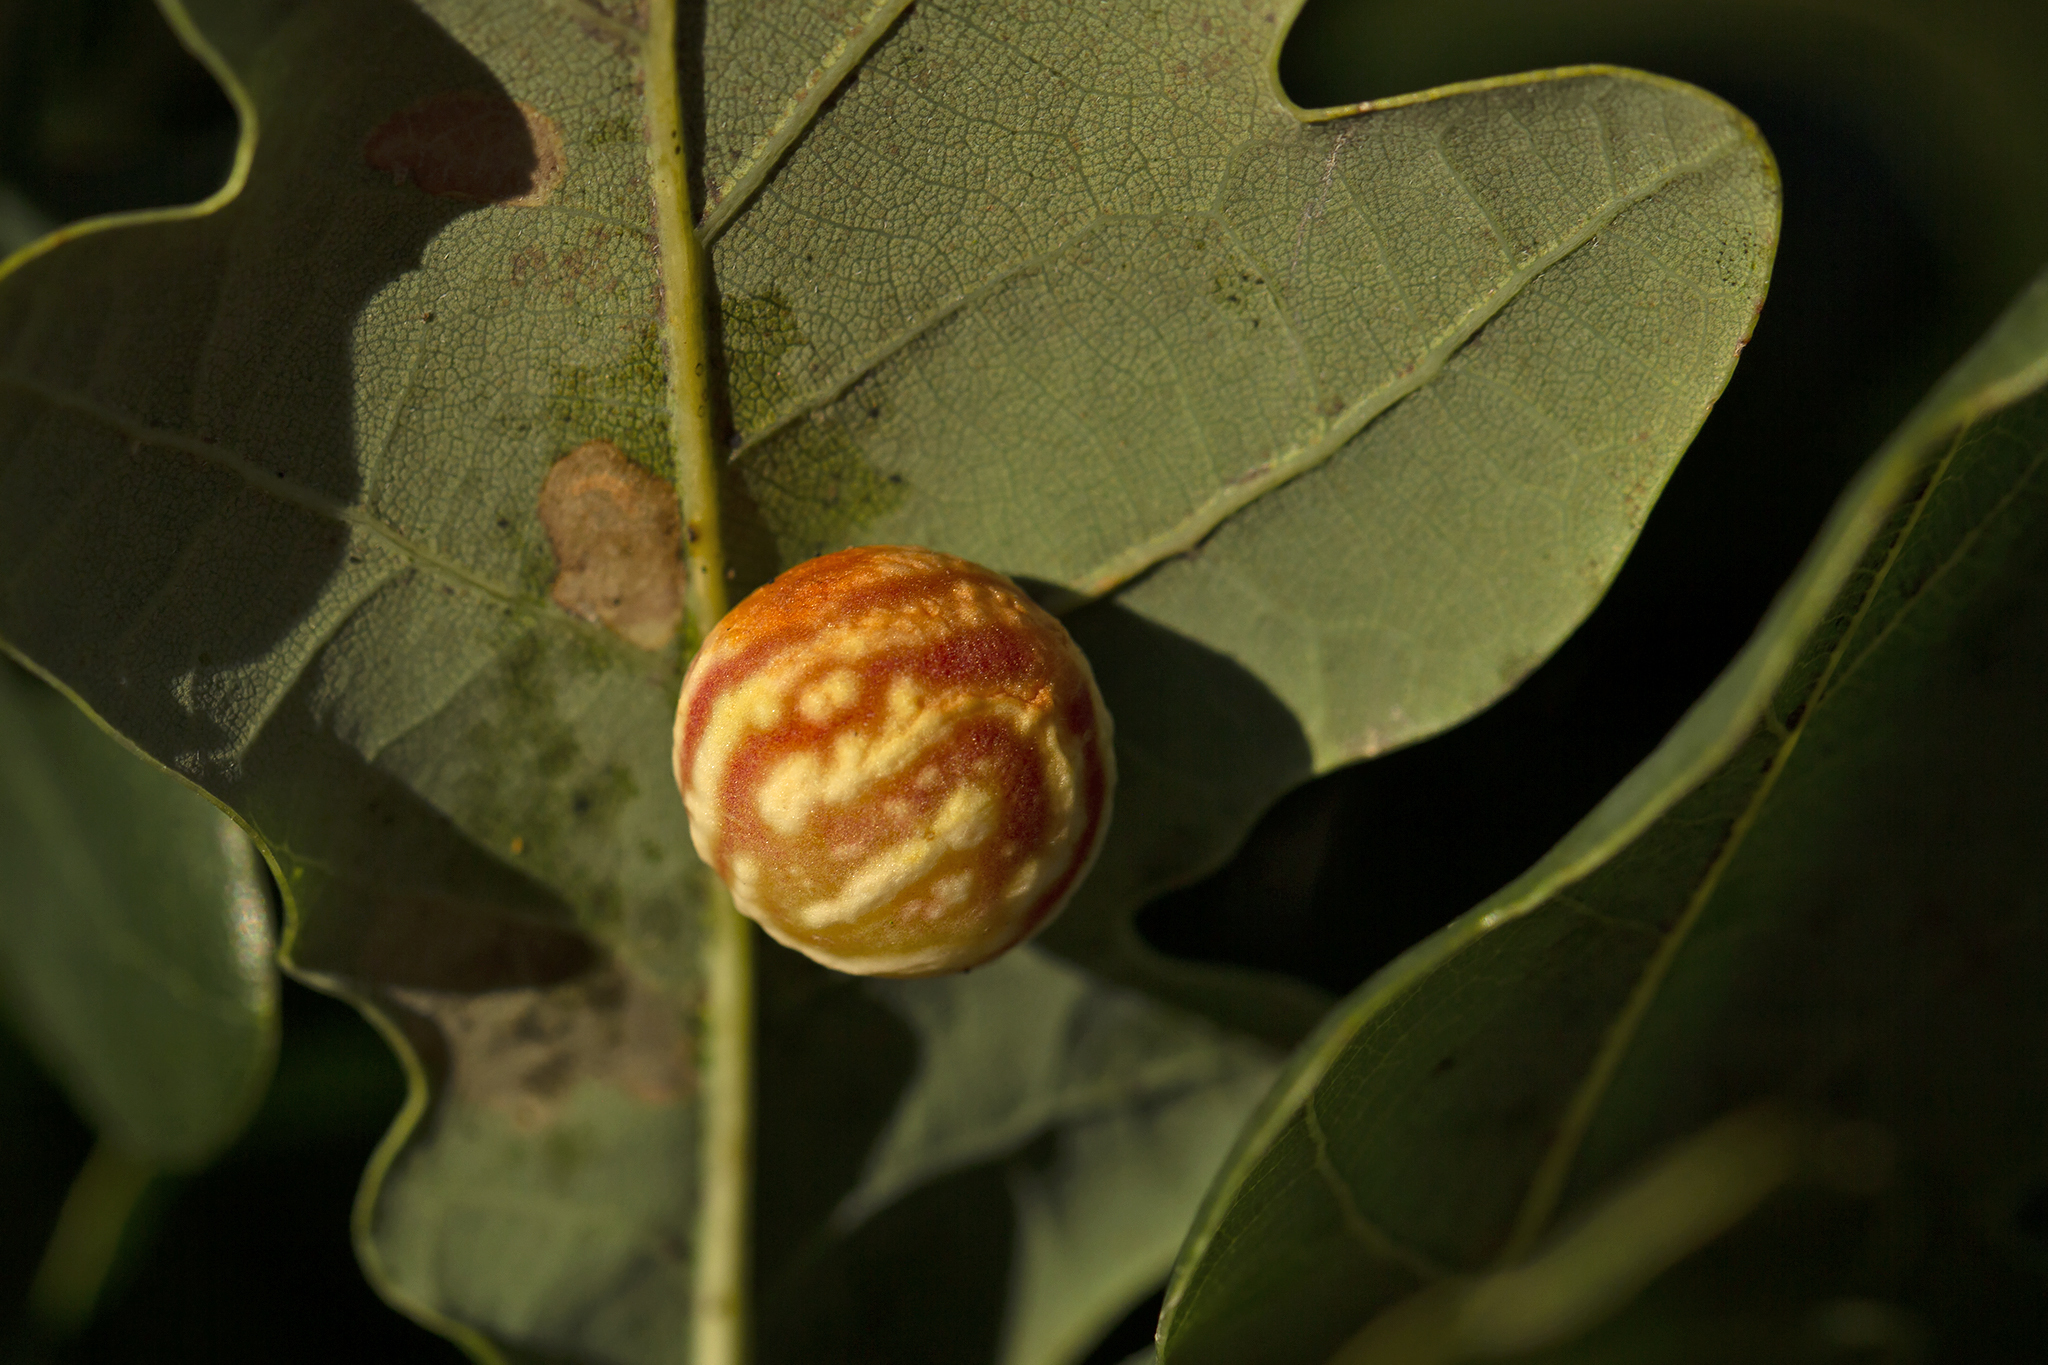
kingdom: Animalia
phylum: Arthropoda
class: Insecta
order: Hymenoptera
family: Cynipidae
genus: Cynips
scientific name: Cynips longiventris
